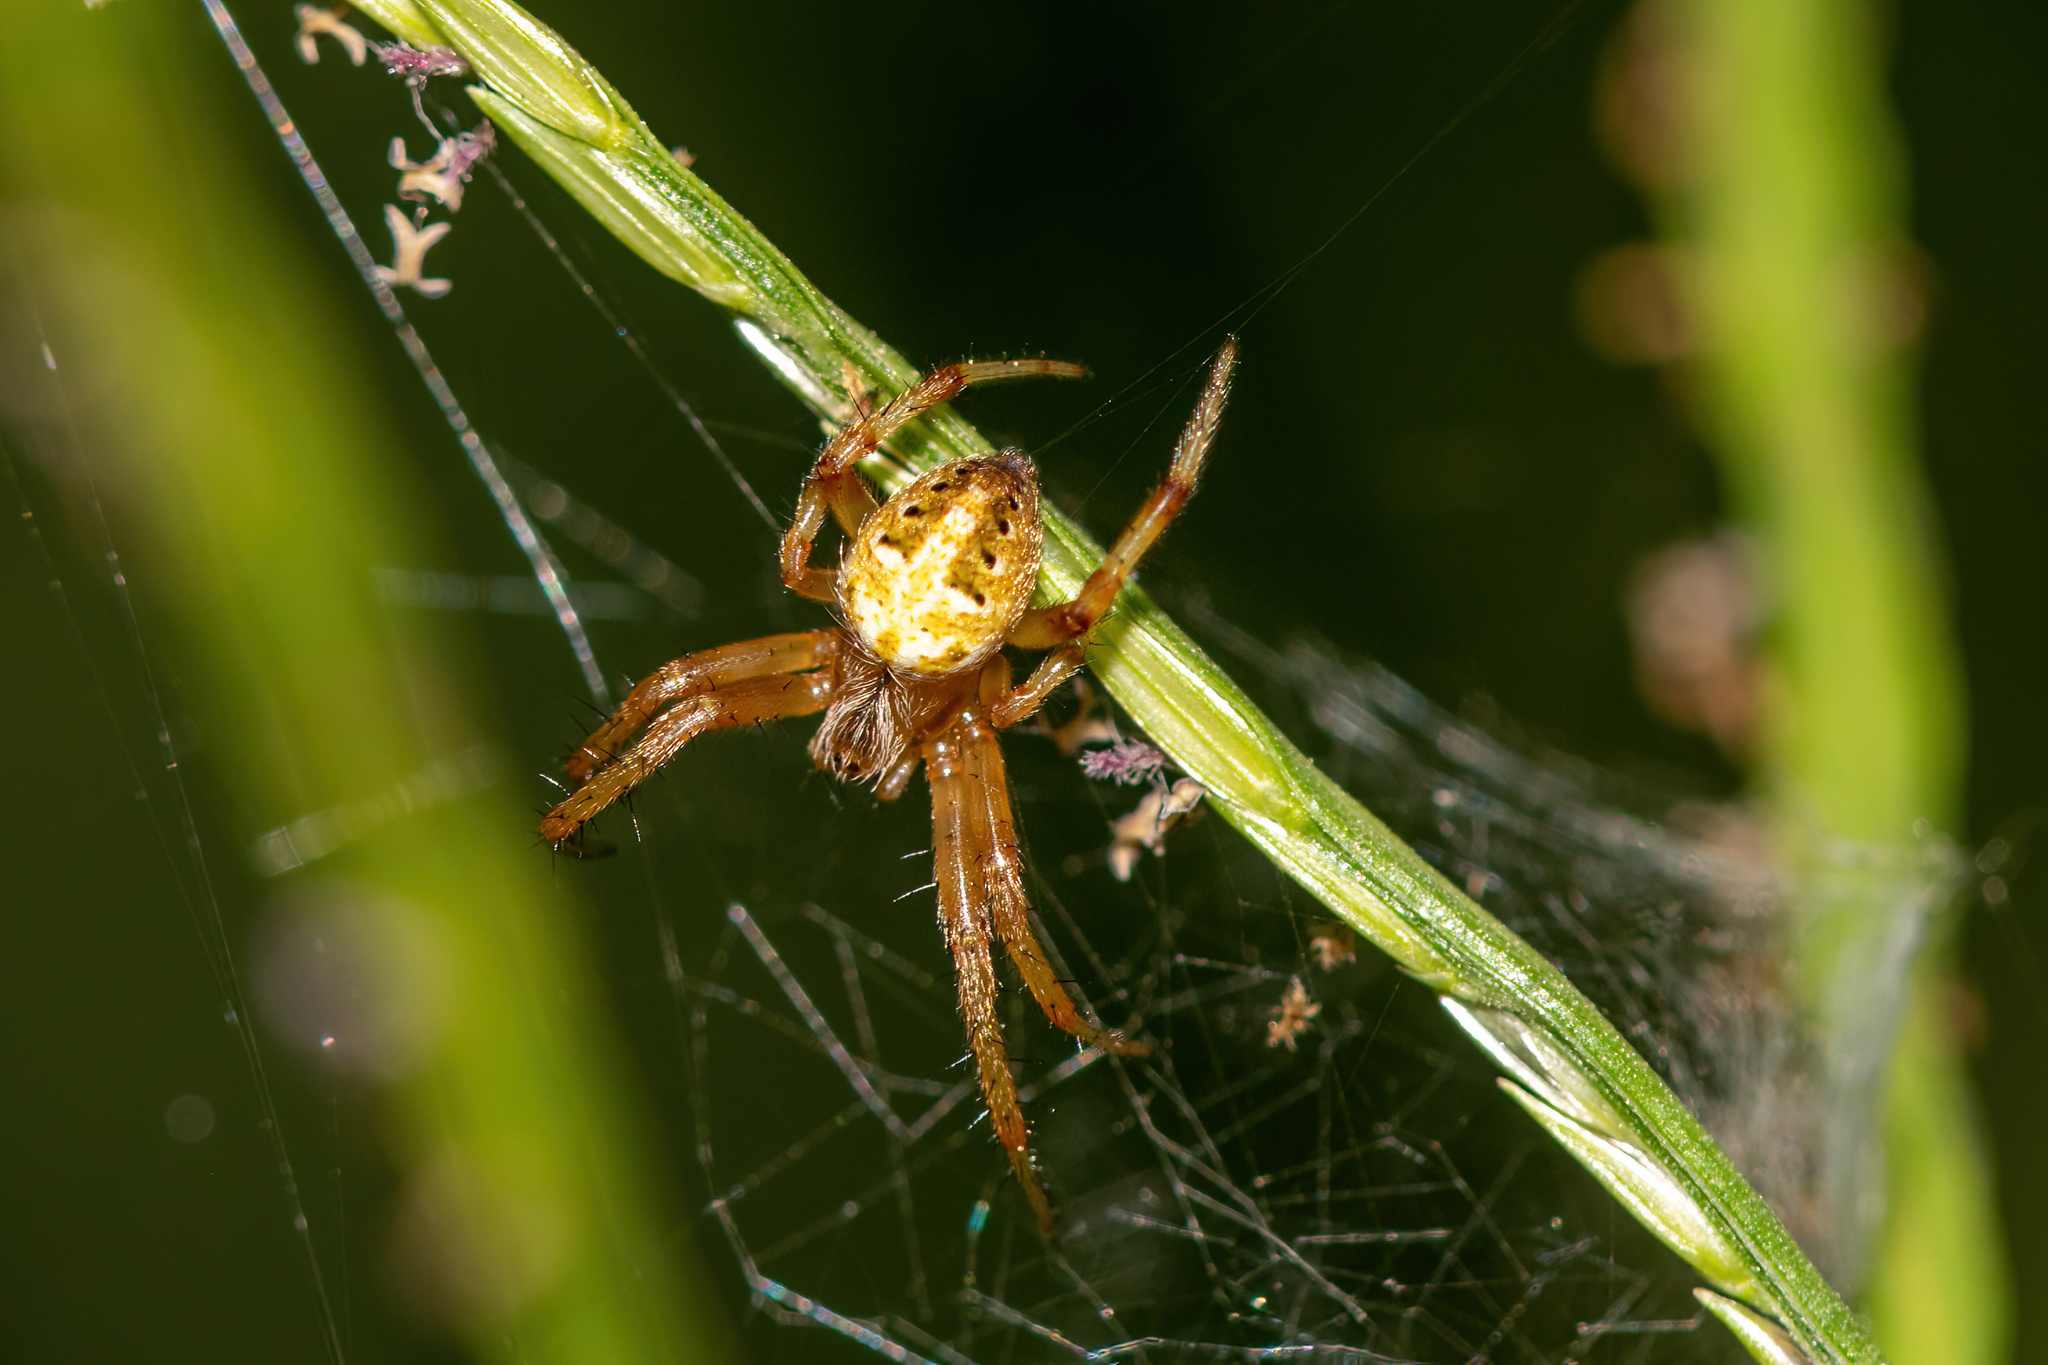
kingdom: Animalia
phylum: Arthropoda
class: Arachnida
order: Araneae
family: Araneidae
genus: Neoscona
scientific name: Neoscona arabesca
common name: Orb weavers
